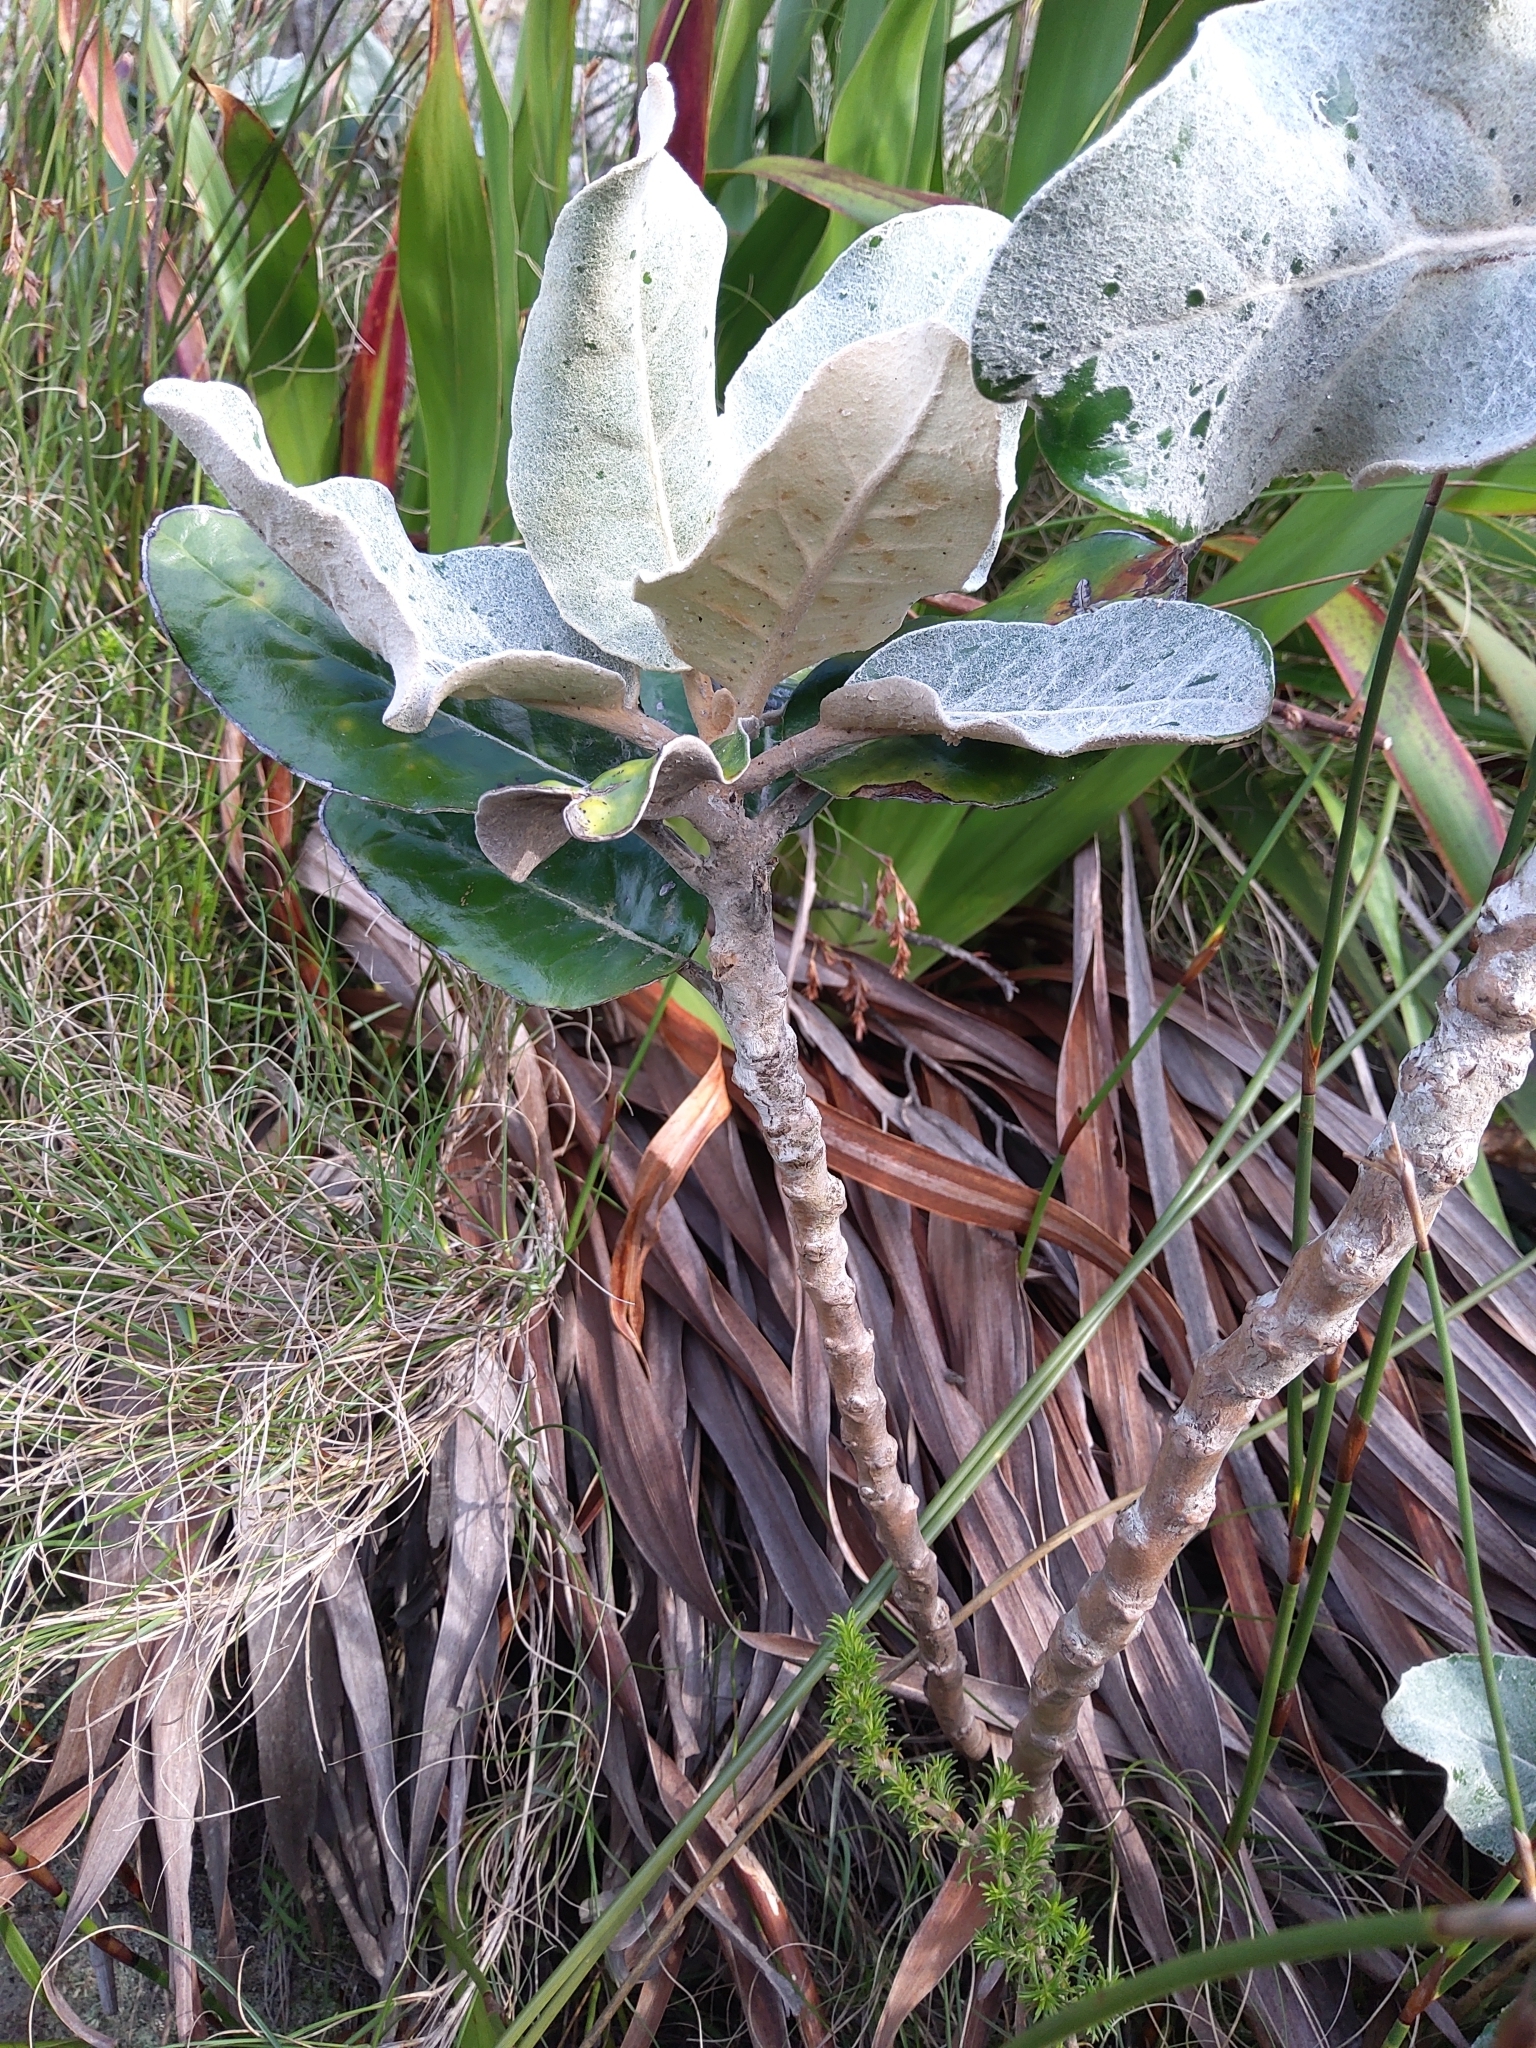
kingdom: Plantae
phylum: Tracheophyta
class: Magnoliopsida
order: Asterales
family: Asteraceae
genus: Capelio
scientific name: Capelio tabularis
